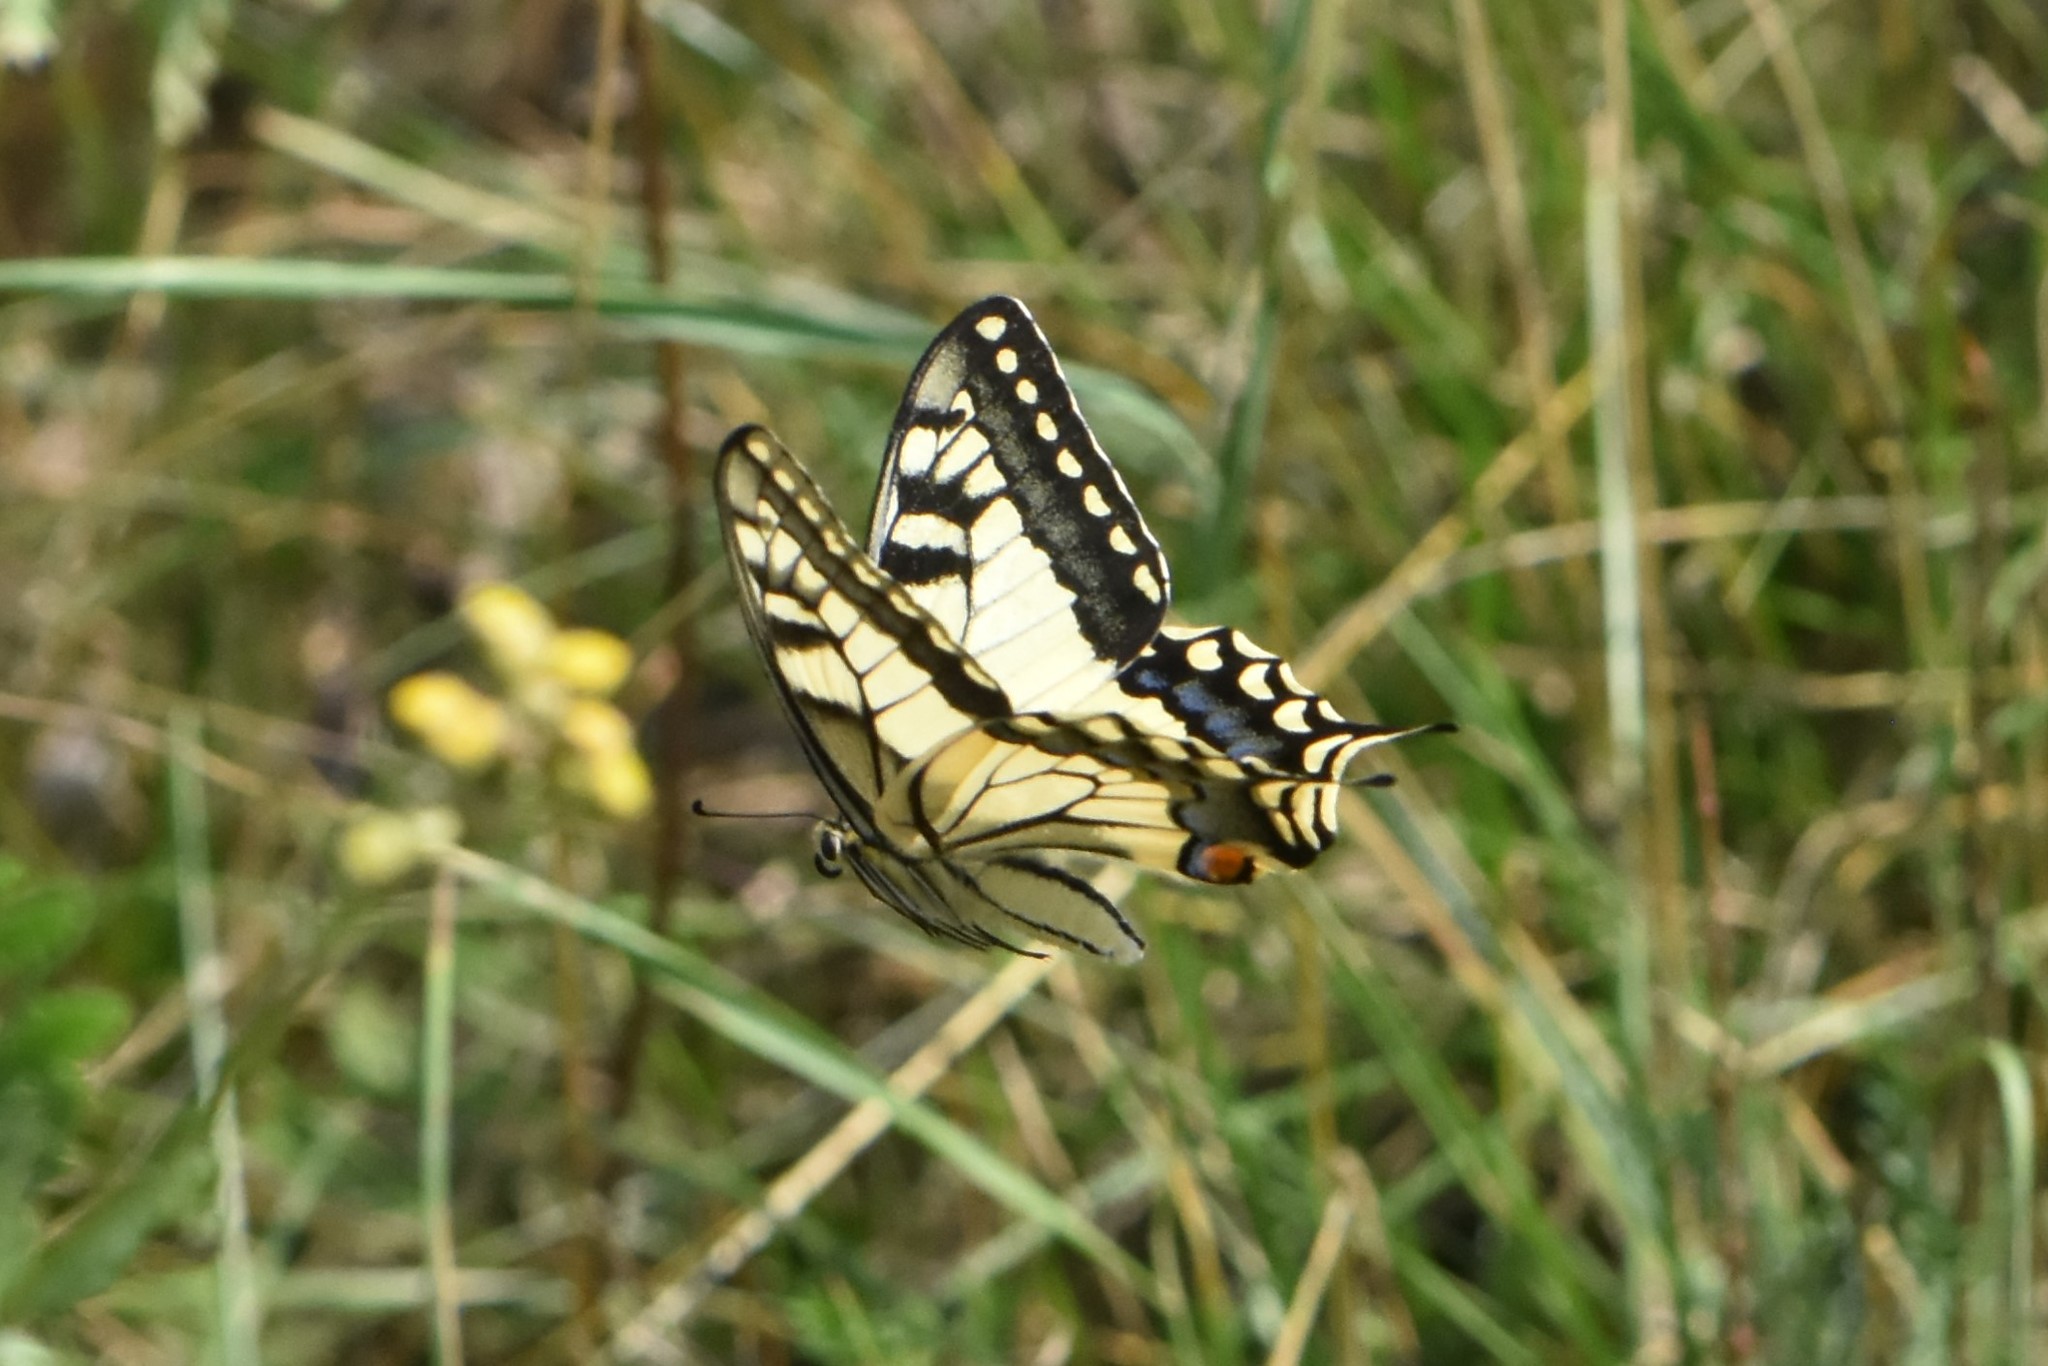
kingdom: Animalia
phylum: Arthropoda
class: Insecta
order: Lepidoptera
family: Papilionidae
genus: Papilio
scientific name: Papilio machaon
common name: Swallowtail
